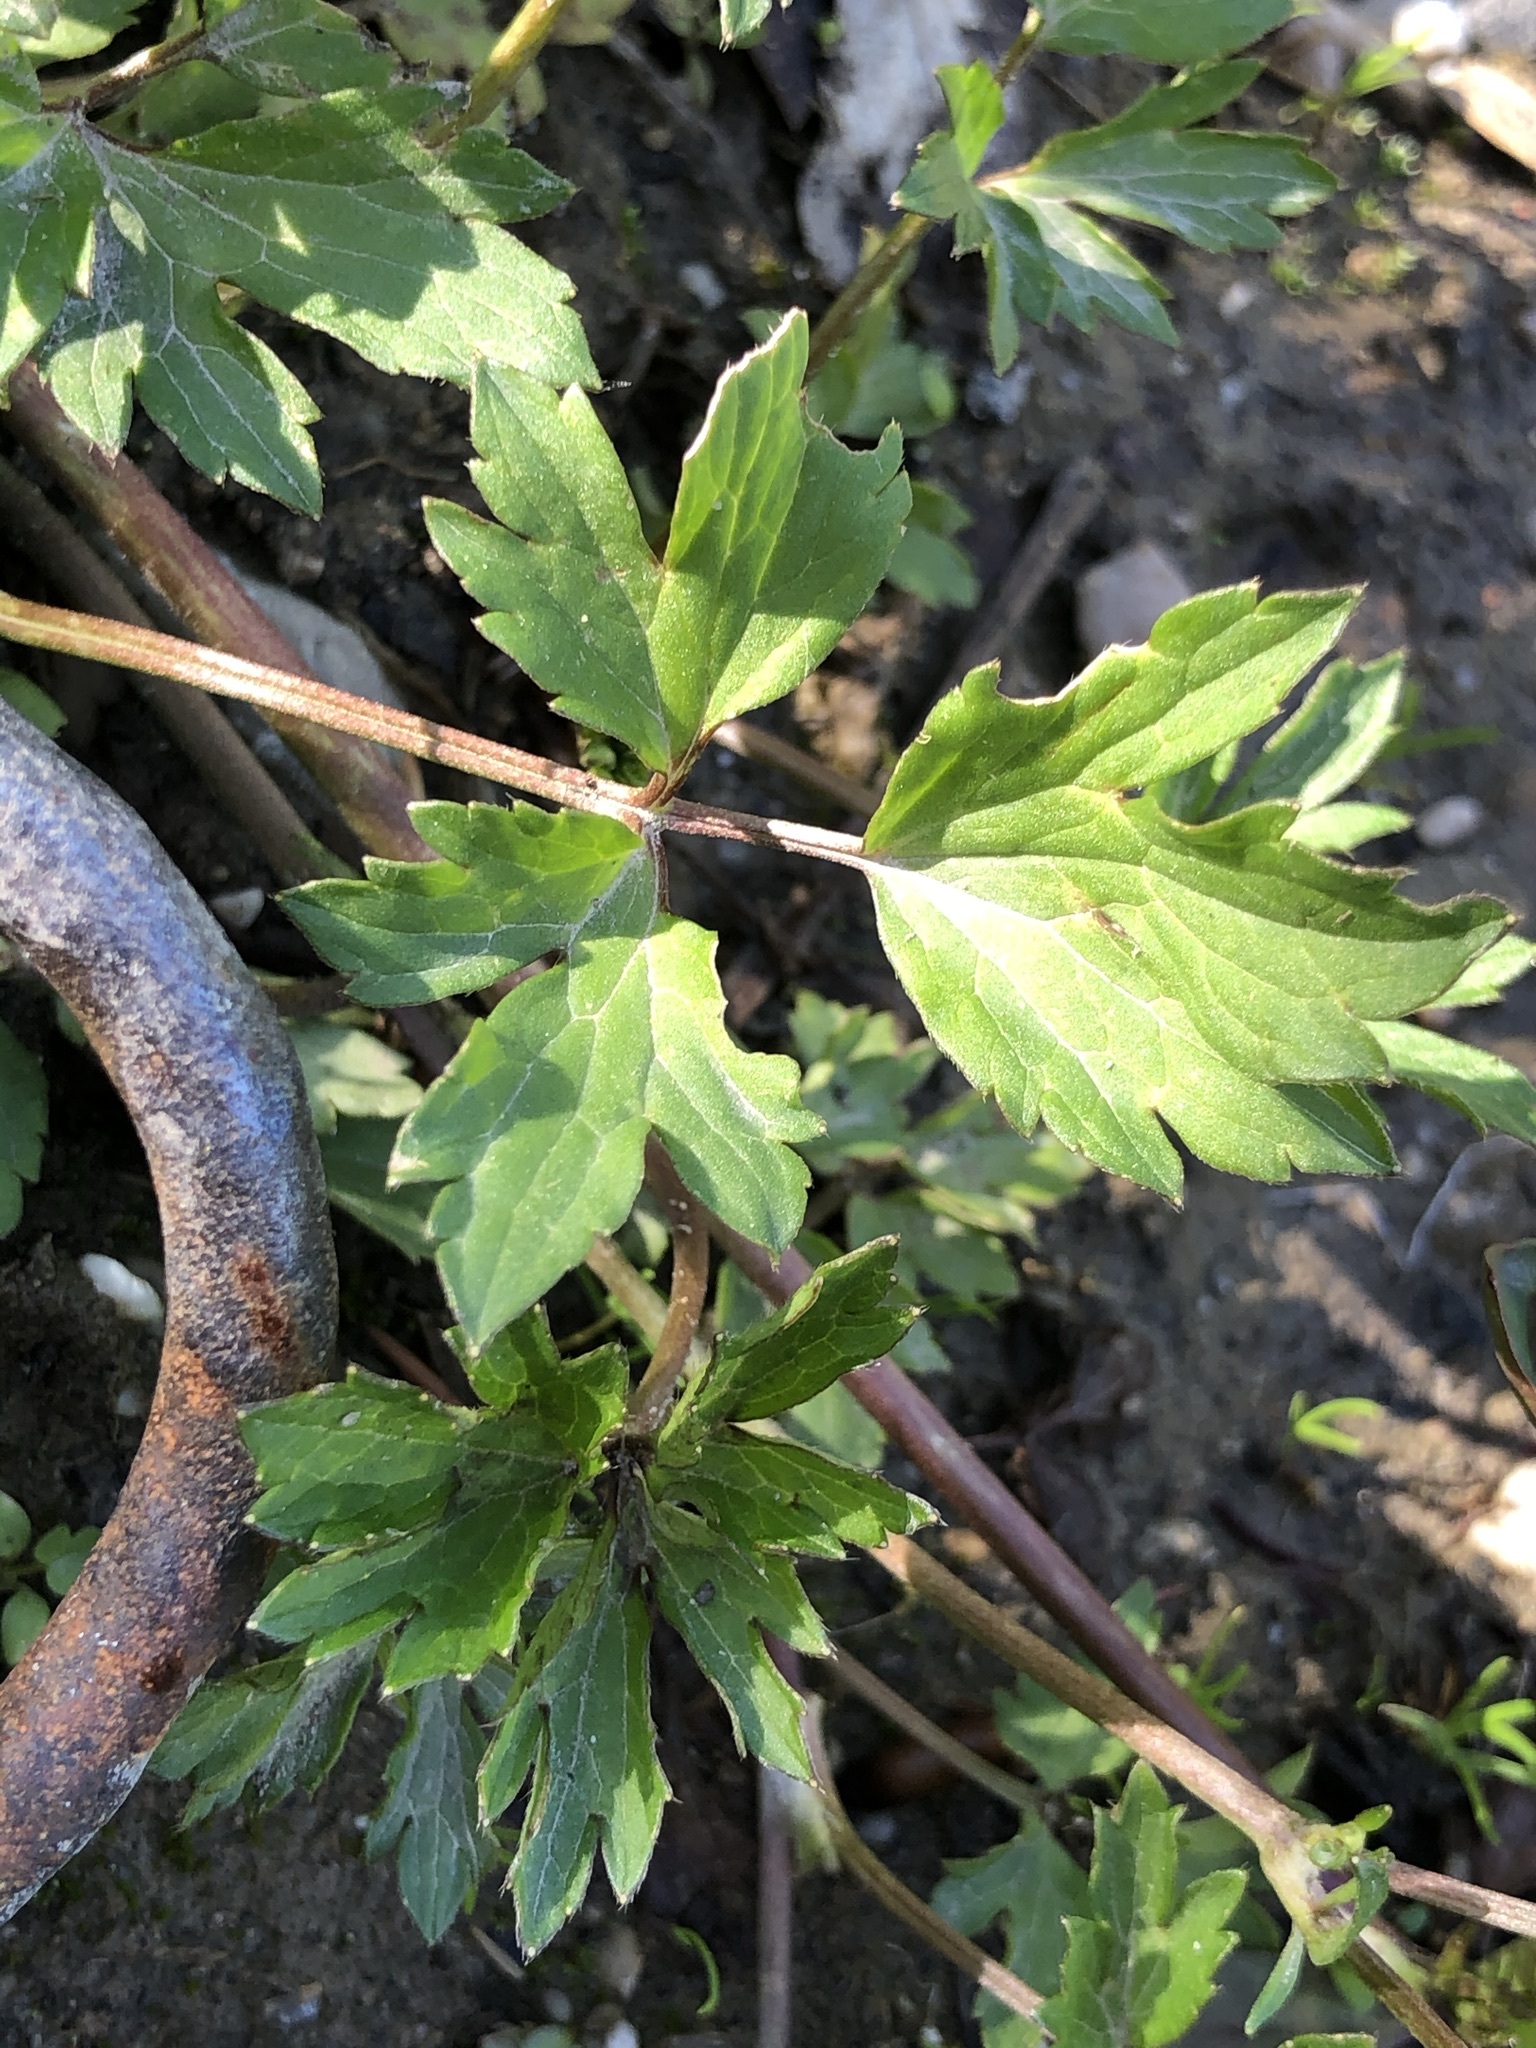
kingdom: Plantae
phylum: Tracheophyta
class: Magnoliopsida
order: Ranunculales
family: Ranunculaceae
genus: Ranunculus
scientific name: Ranunculus repens
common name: Creeping buttercup
